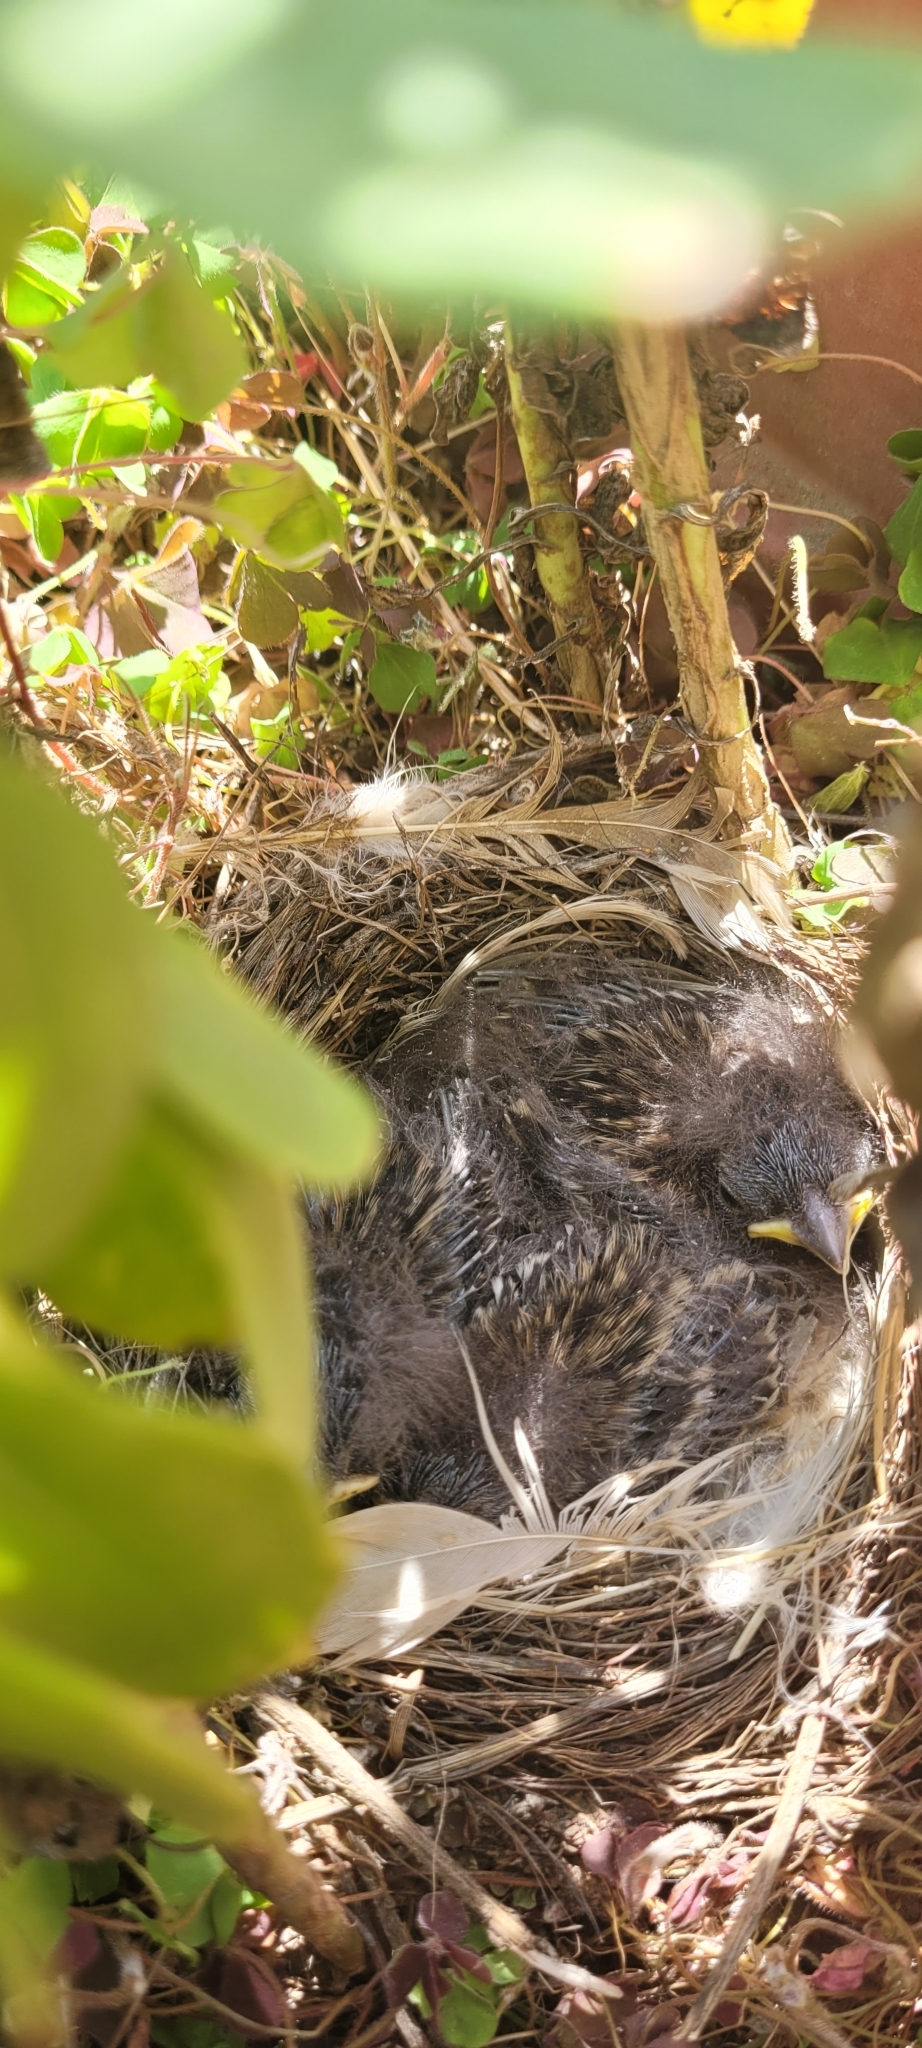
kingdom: Animalia
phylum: Chordata
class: Aves
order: Passeriformes
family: Passerellidae
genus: Zonotrichia
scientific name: Zonotrichia capensis
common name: Rufous-collared sparrow
